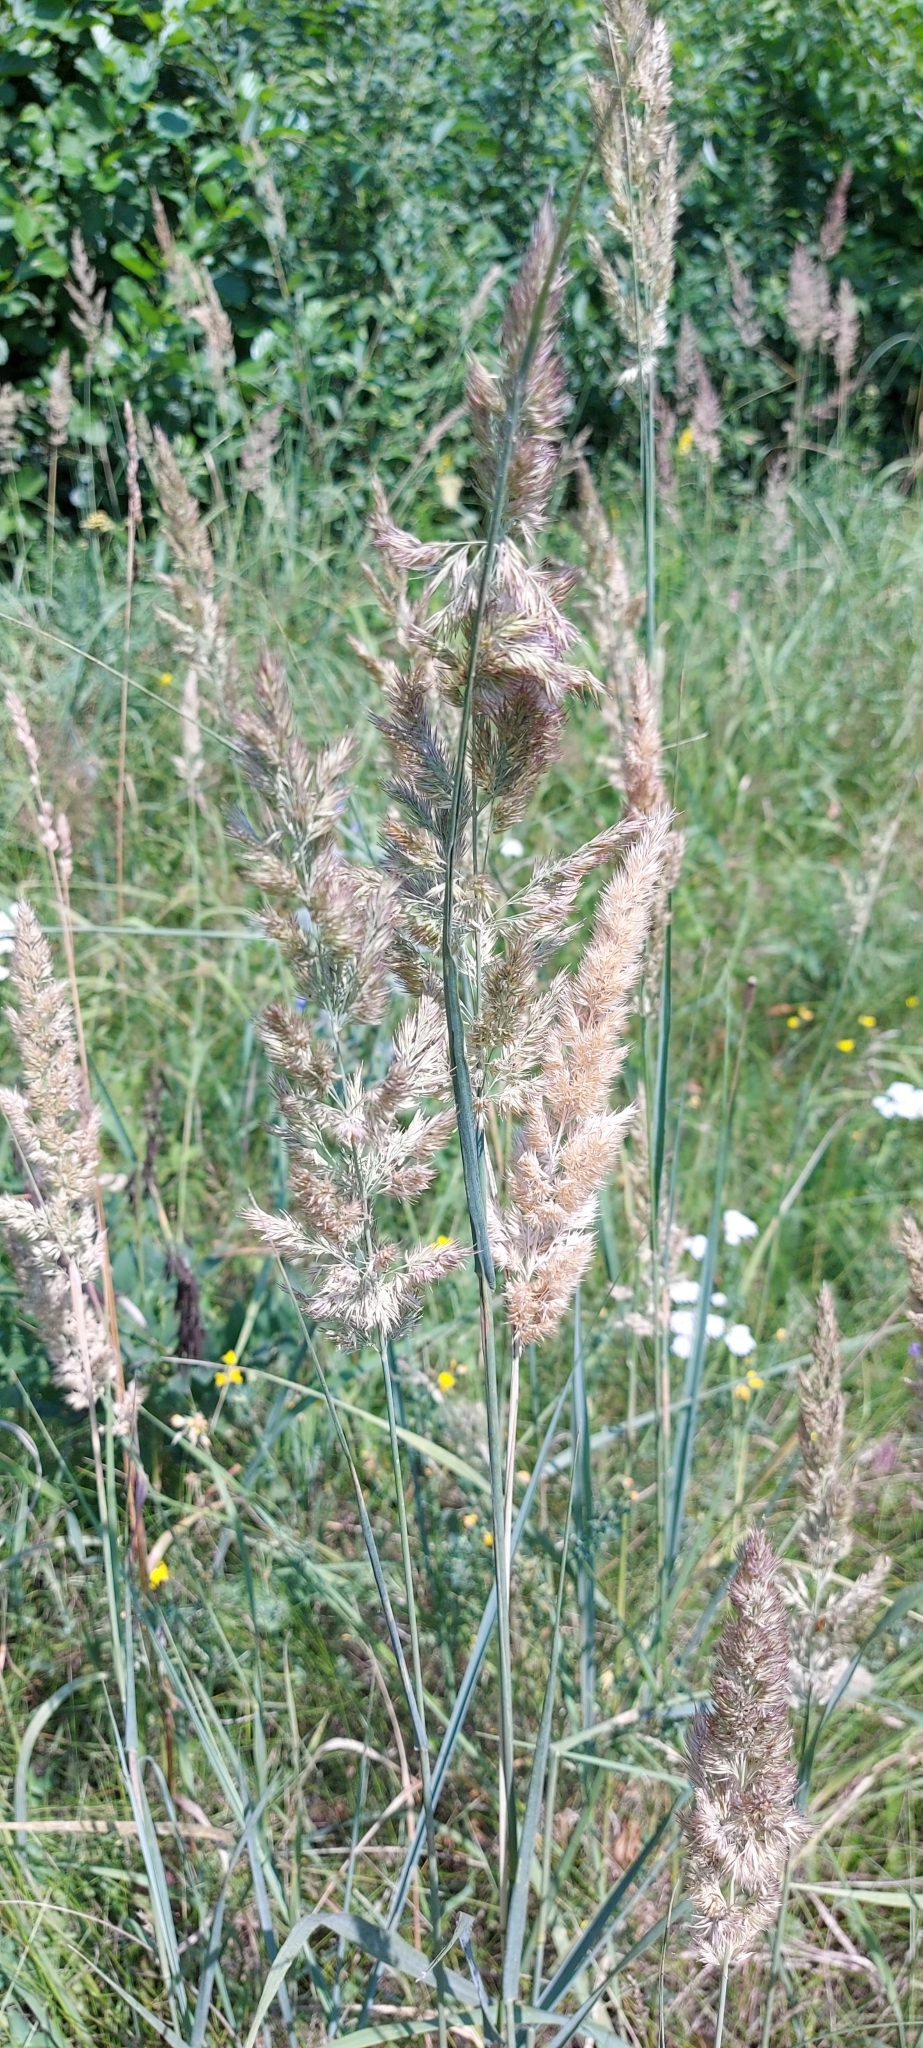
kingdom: Plantae
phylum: Tracheophyta
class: Liliopsida
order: Poales
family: Poaceae
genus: Calamagrostis
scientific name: Calamagrostis epigejos
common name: Wood small-reed
